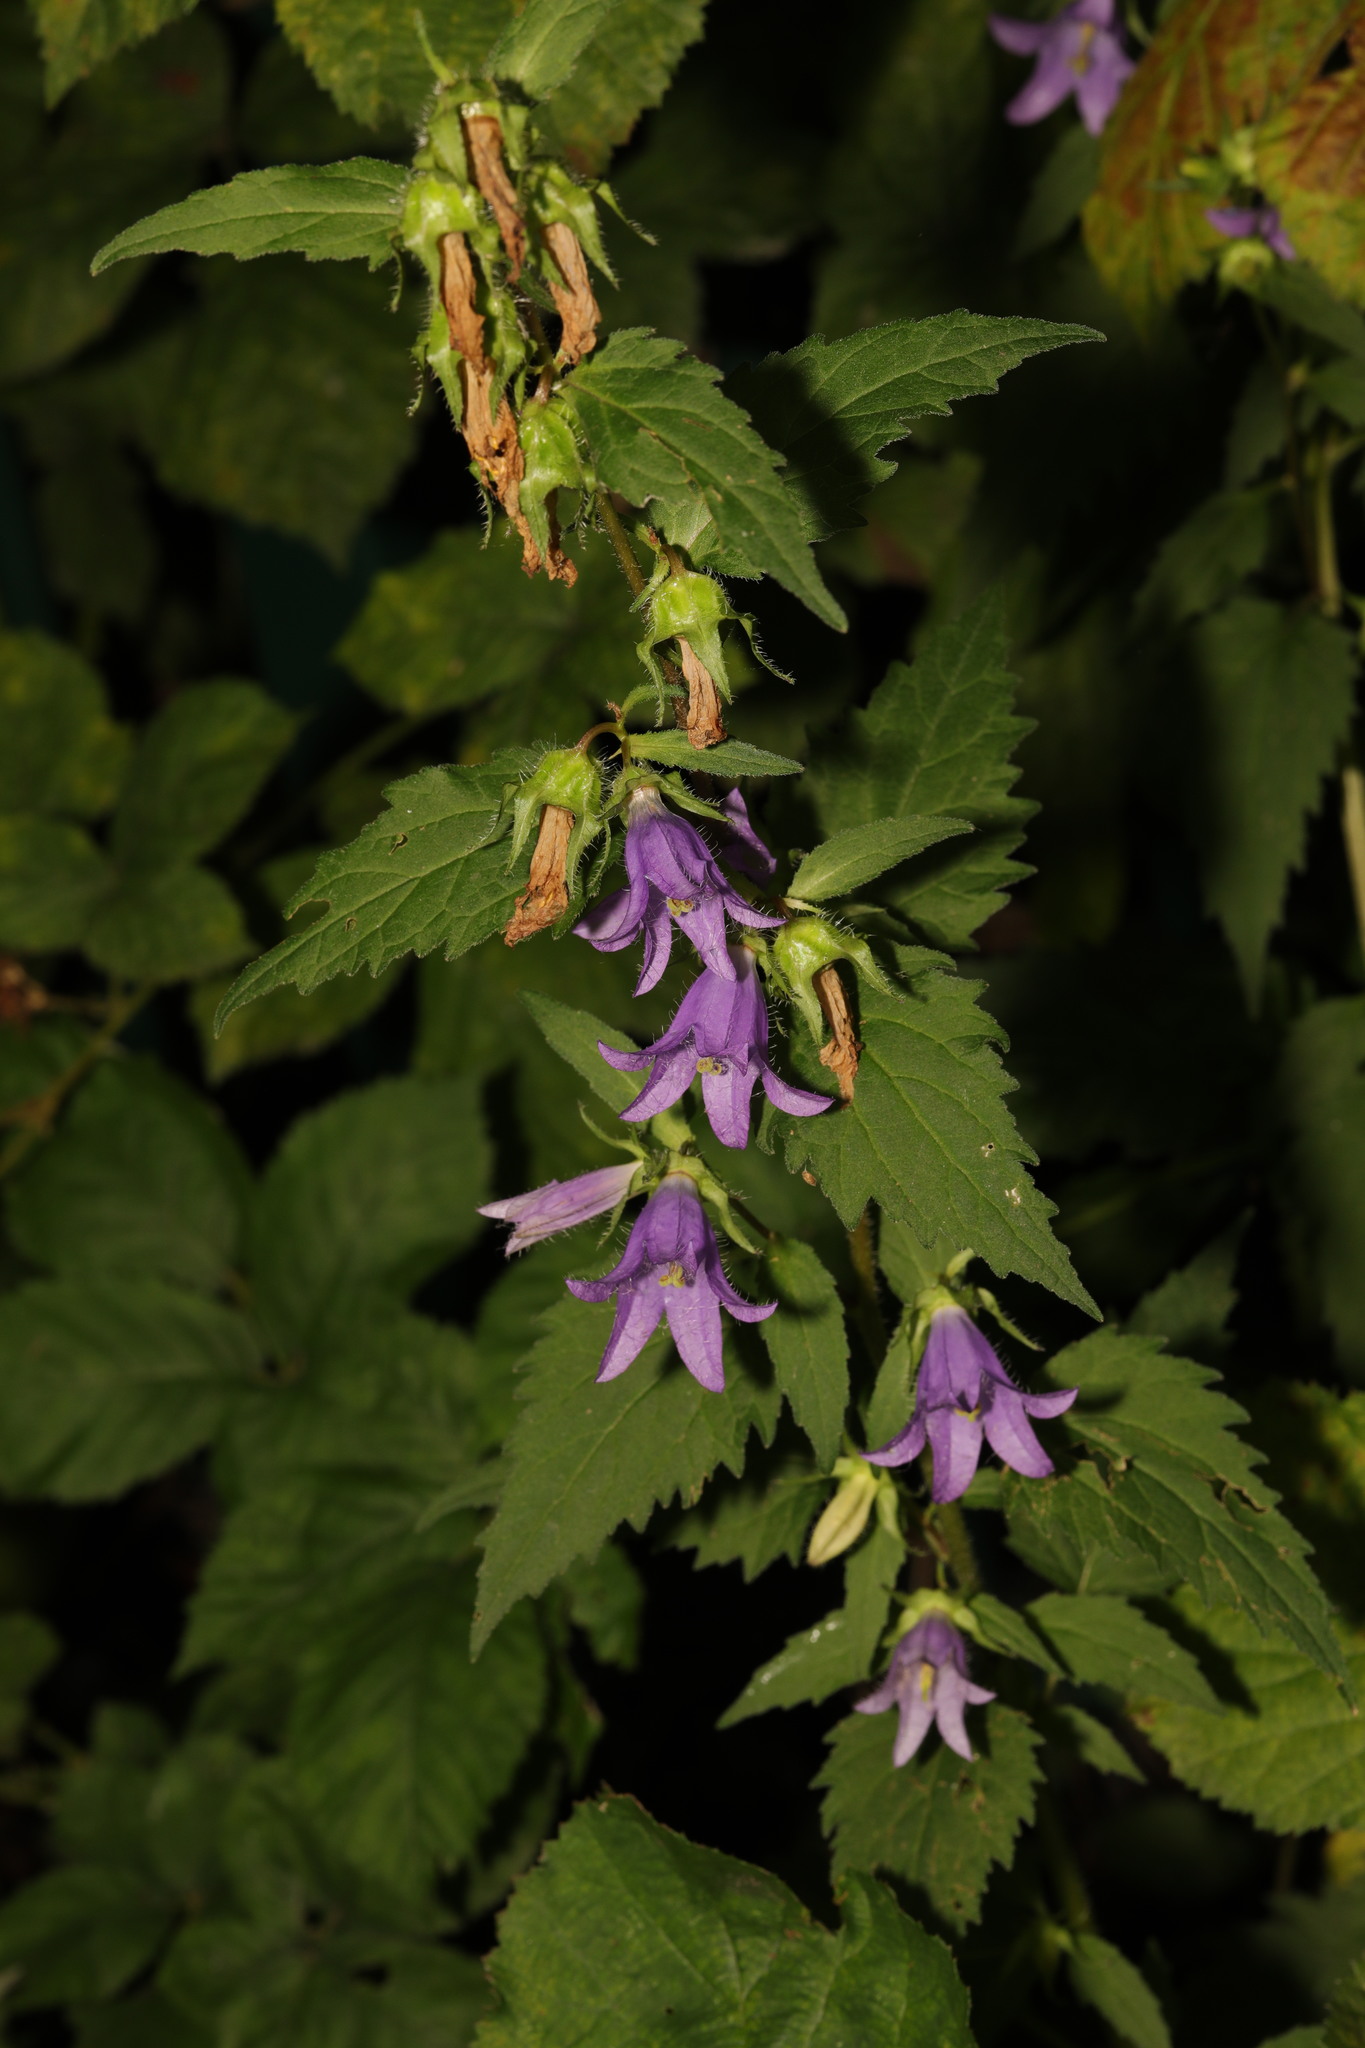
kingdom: Plantae
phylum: Tracheophyta
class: Magnoliopsida
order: Asterales
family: Campanulaceae
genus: Campanula
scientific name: Campanula trachelium
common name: Nettle-leaved bellflower
